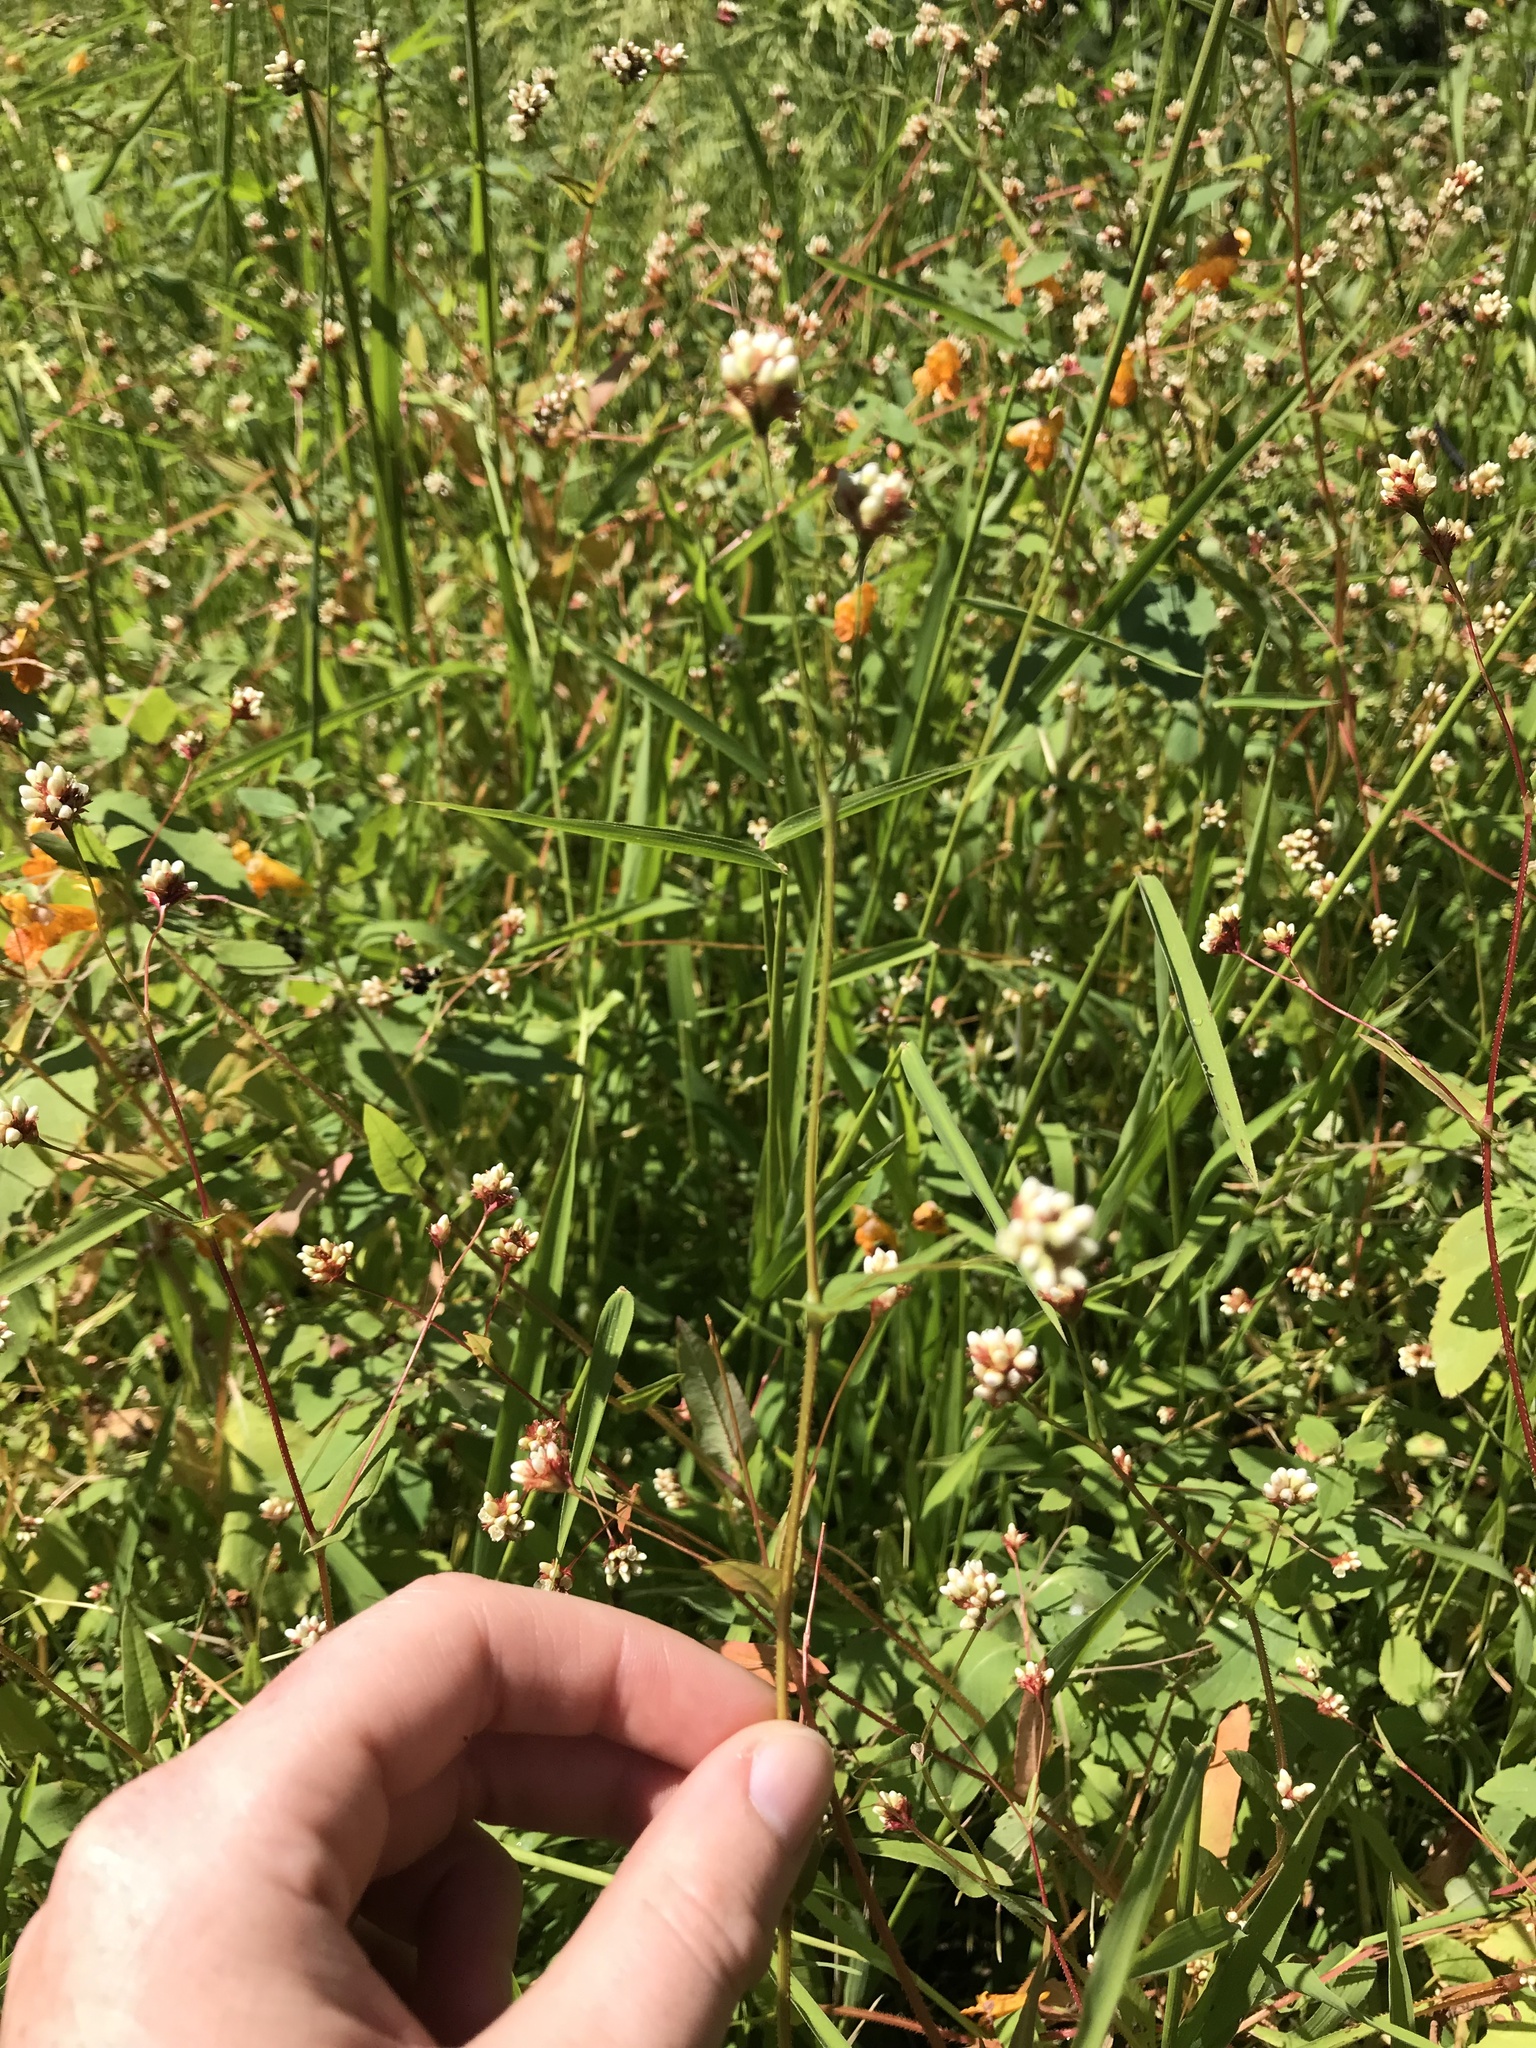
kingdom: Plantae
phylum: Tracheophyta
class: Magnoliopsida
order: Caryophyllales
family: Polygonaceae
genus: Persicaria
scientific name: Persicaria sagittata
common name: American tearthumb
